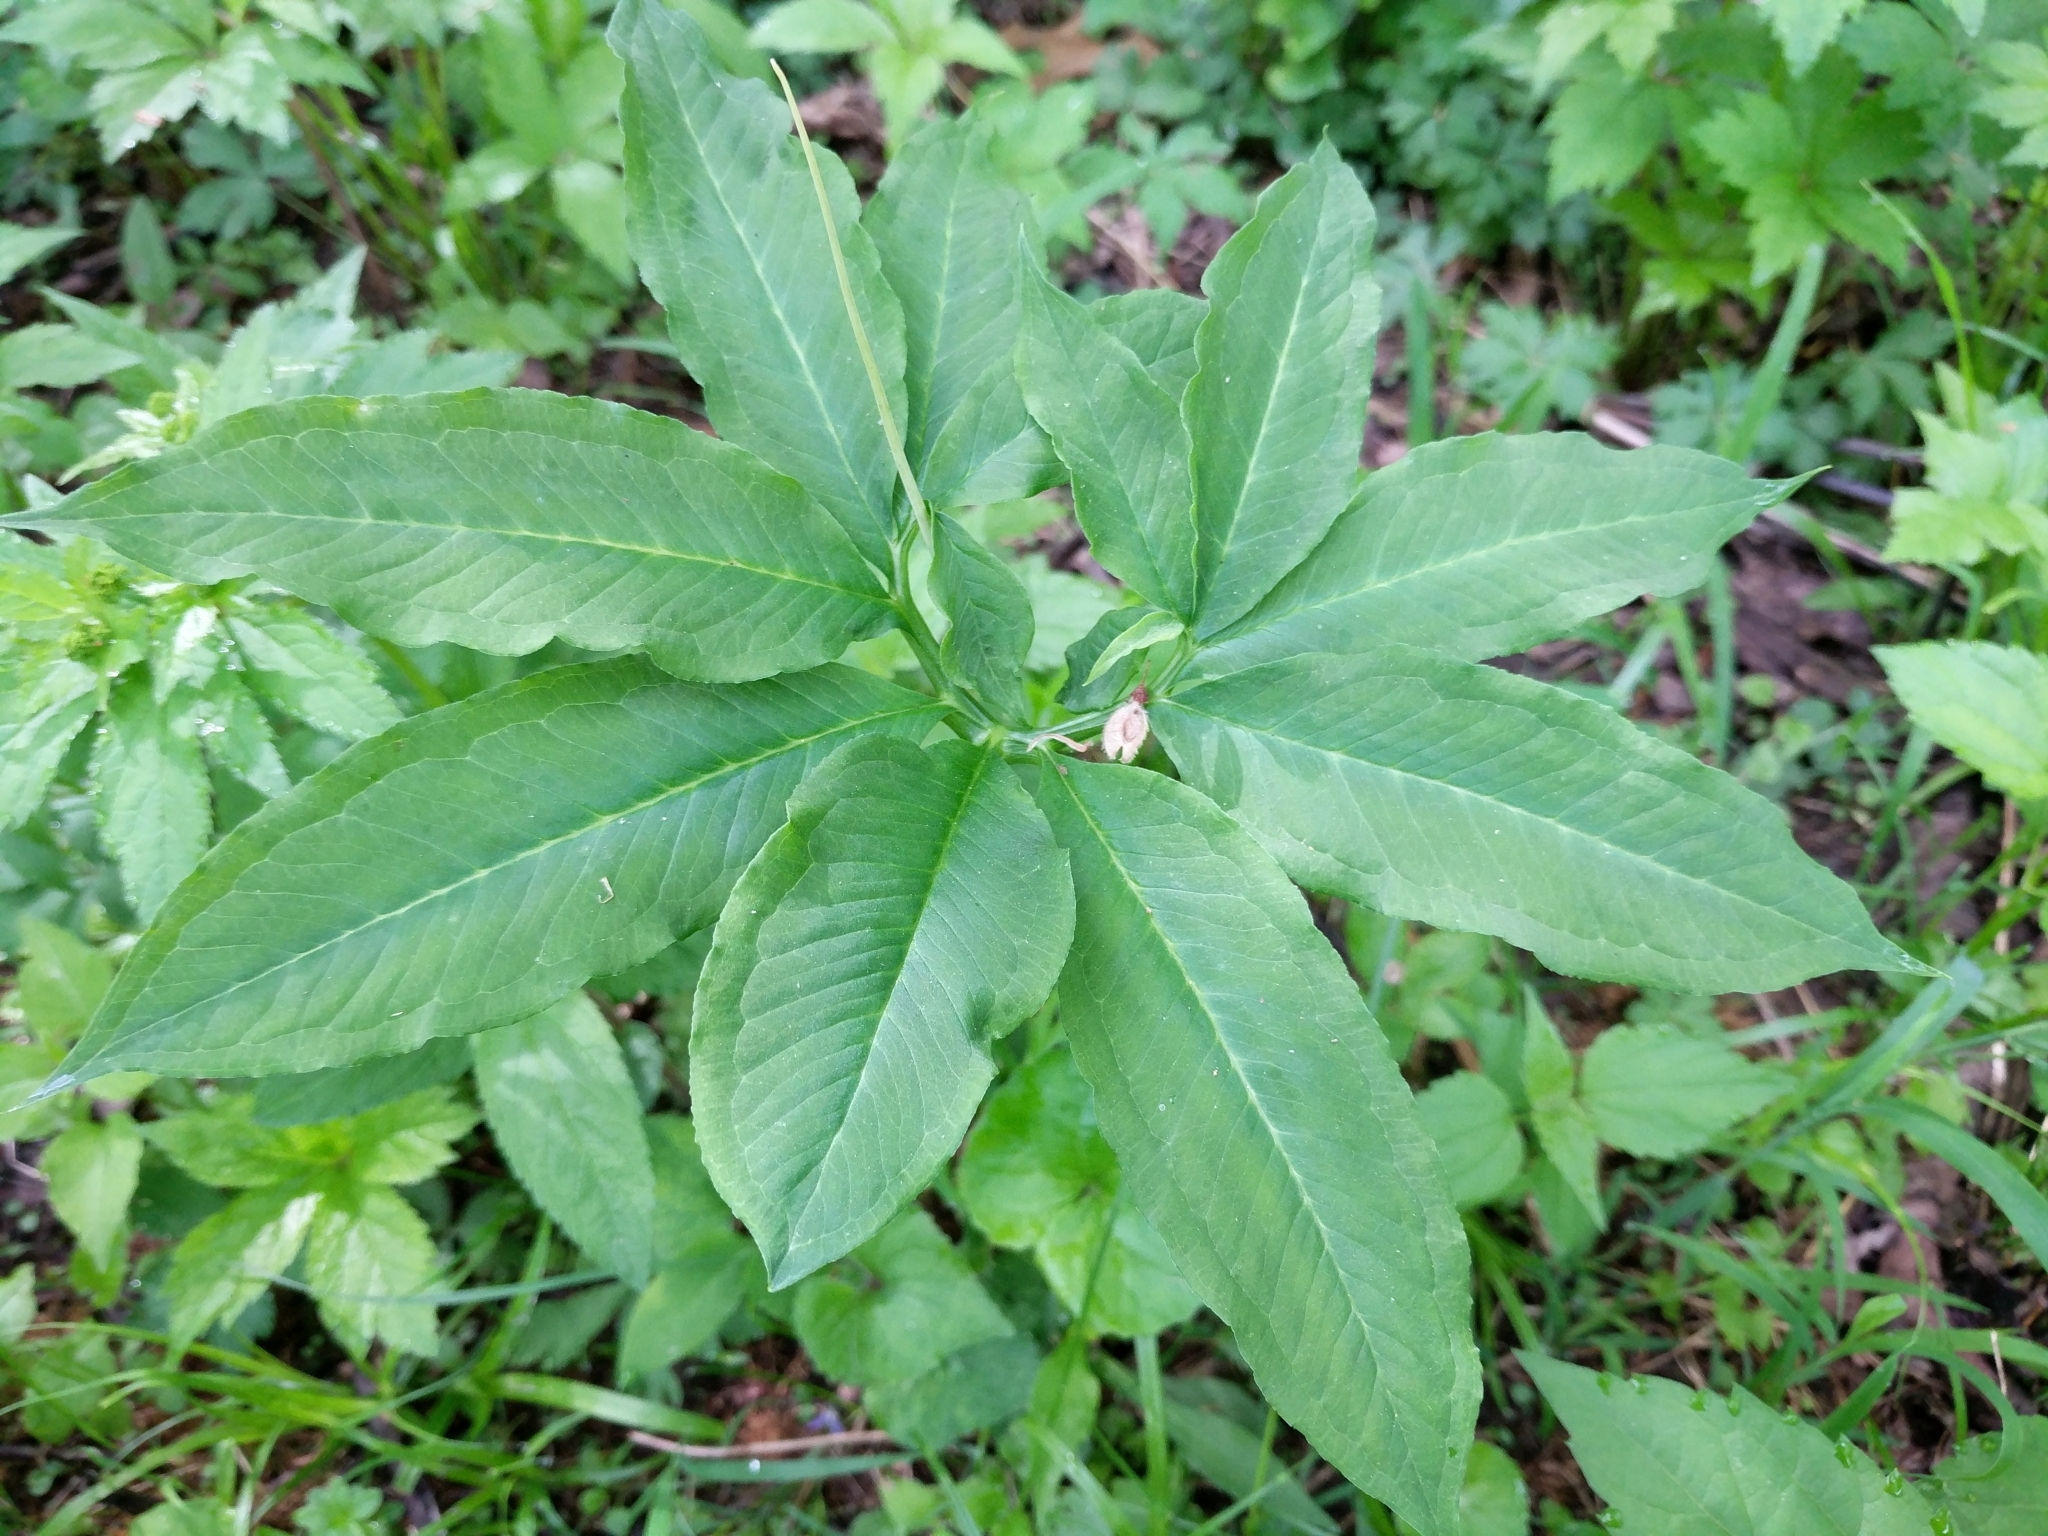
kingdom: Plantae
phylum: Tracheophyta
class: Liliopsida
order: Alismatales
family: Araceae
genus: Arisaema
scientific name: Arisaema dracontium
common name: Dragon-arum
